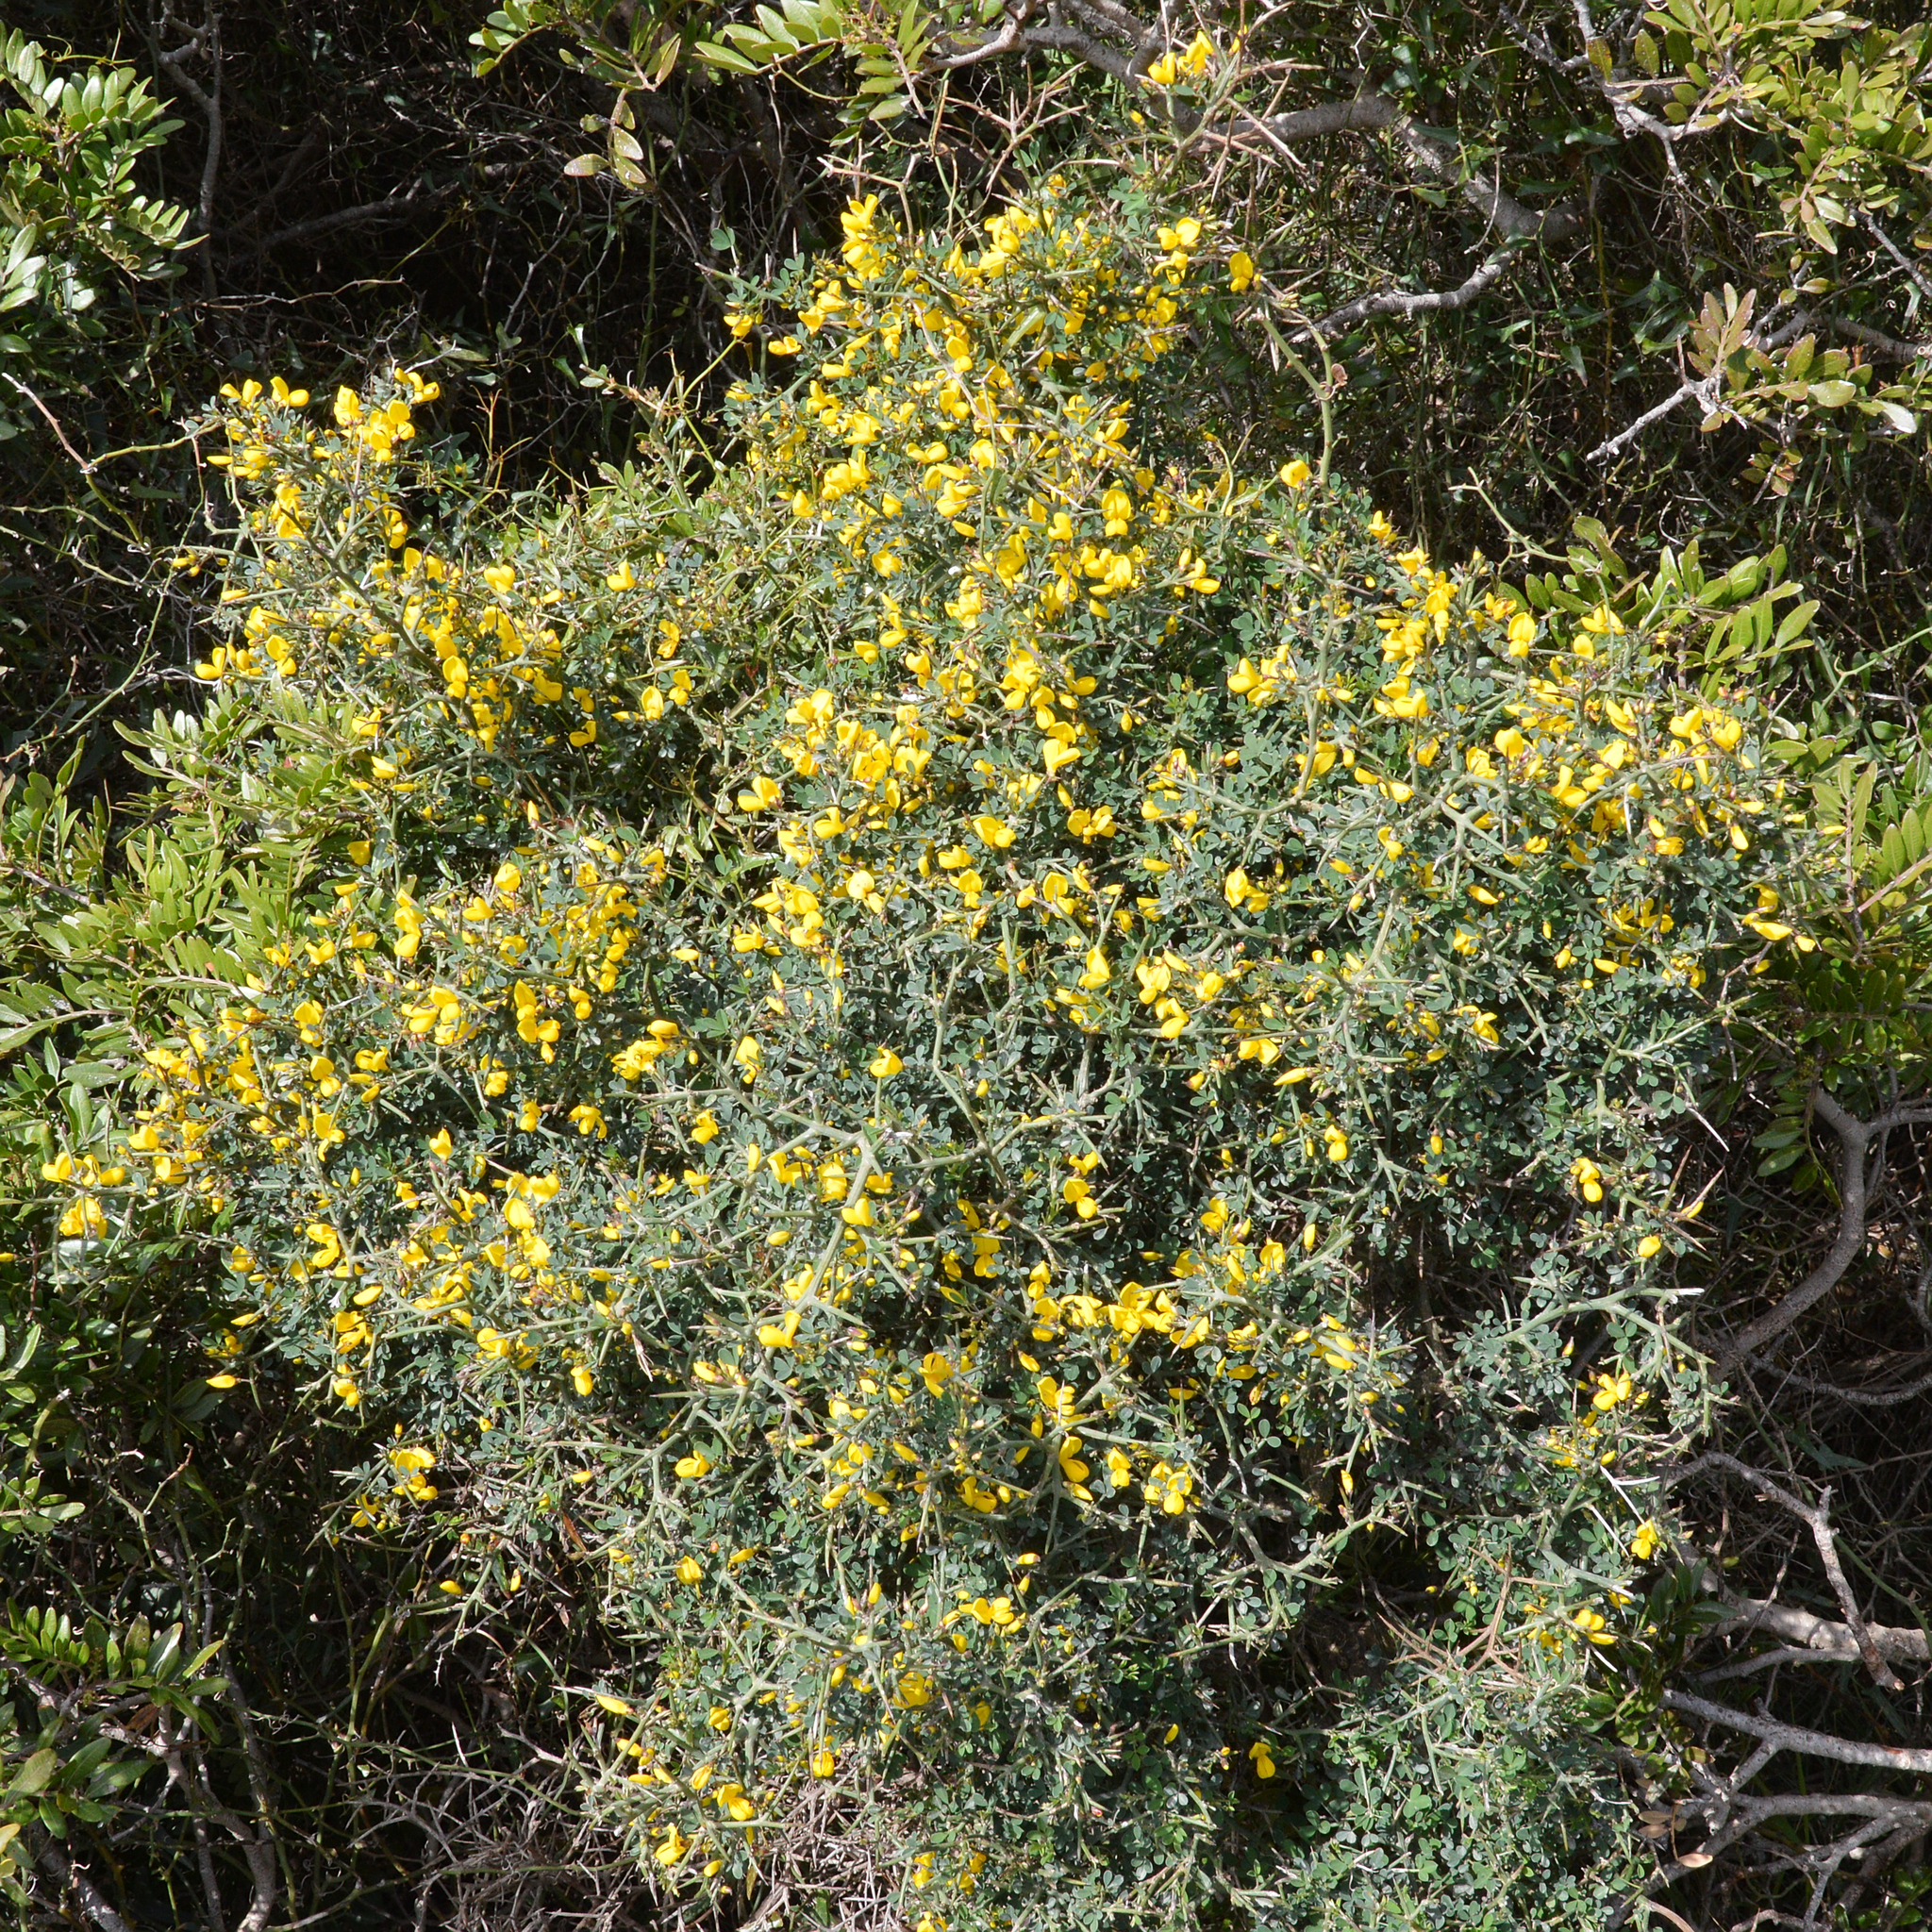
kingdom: Plantae
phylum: Tracheophyta
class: Magnoliopsida
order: Fabales
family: Fabaceae
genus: Calicotome
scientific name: Calicotome spinosa
